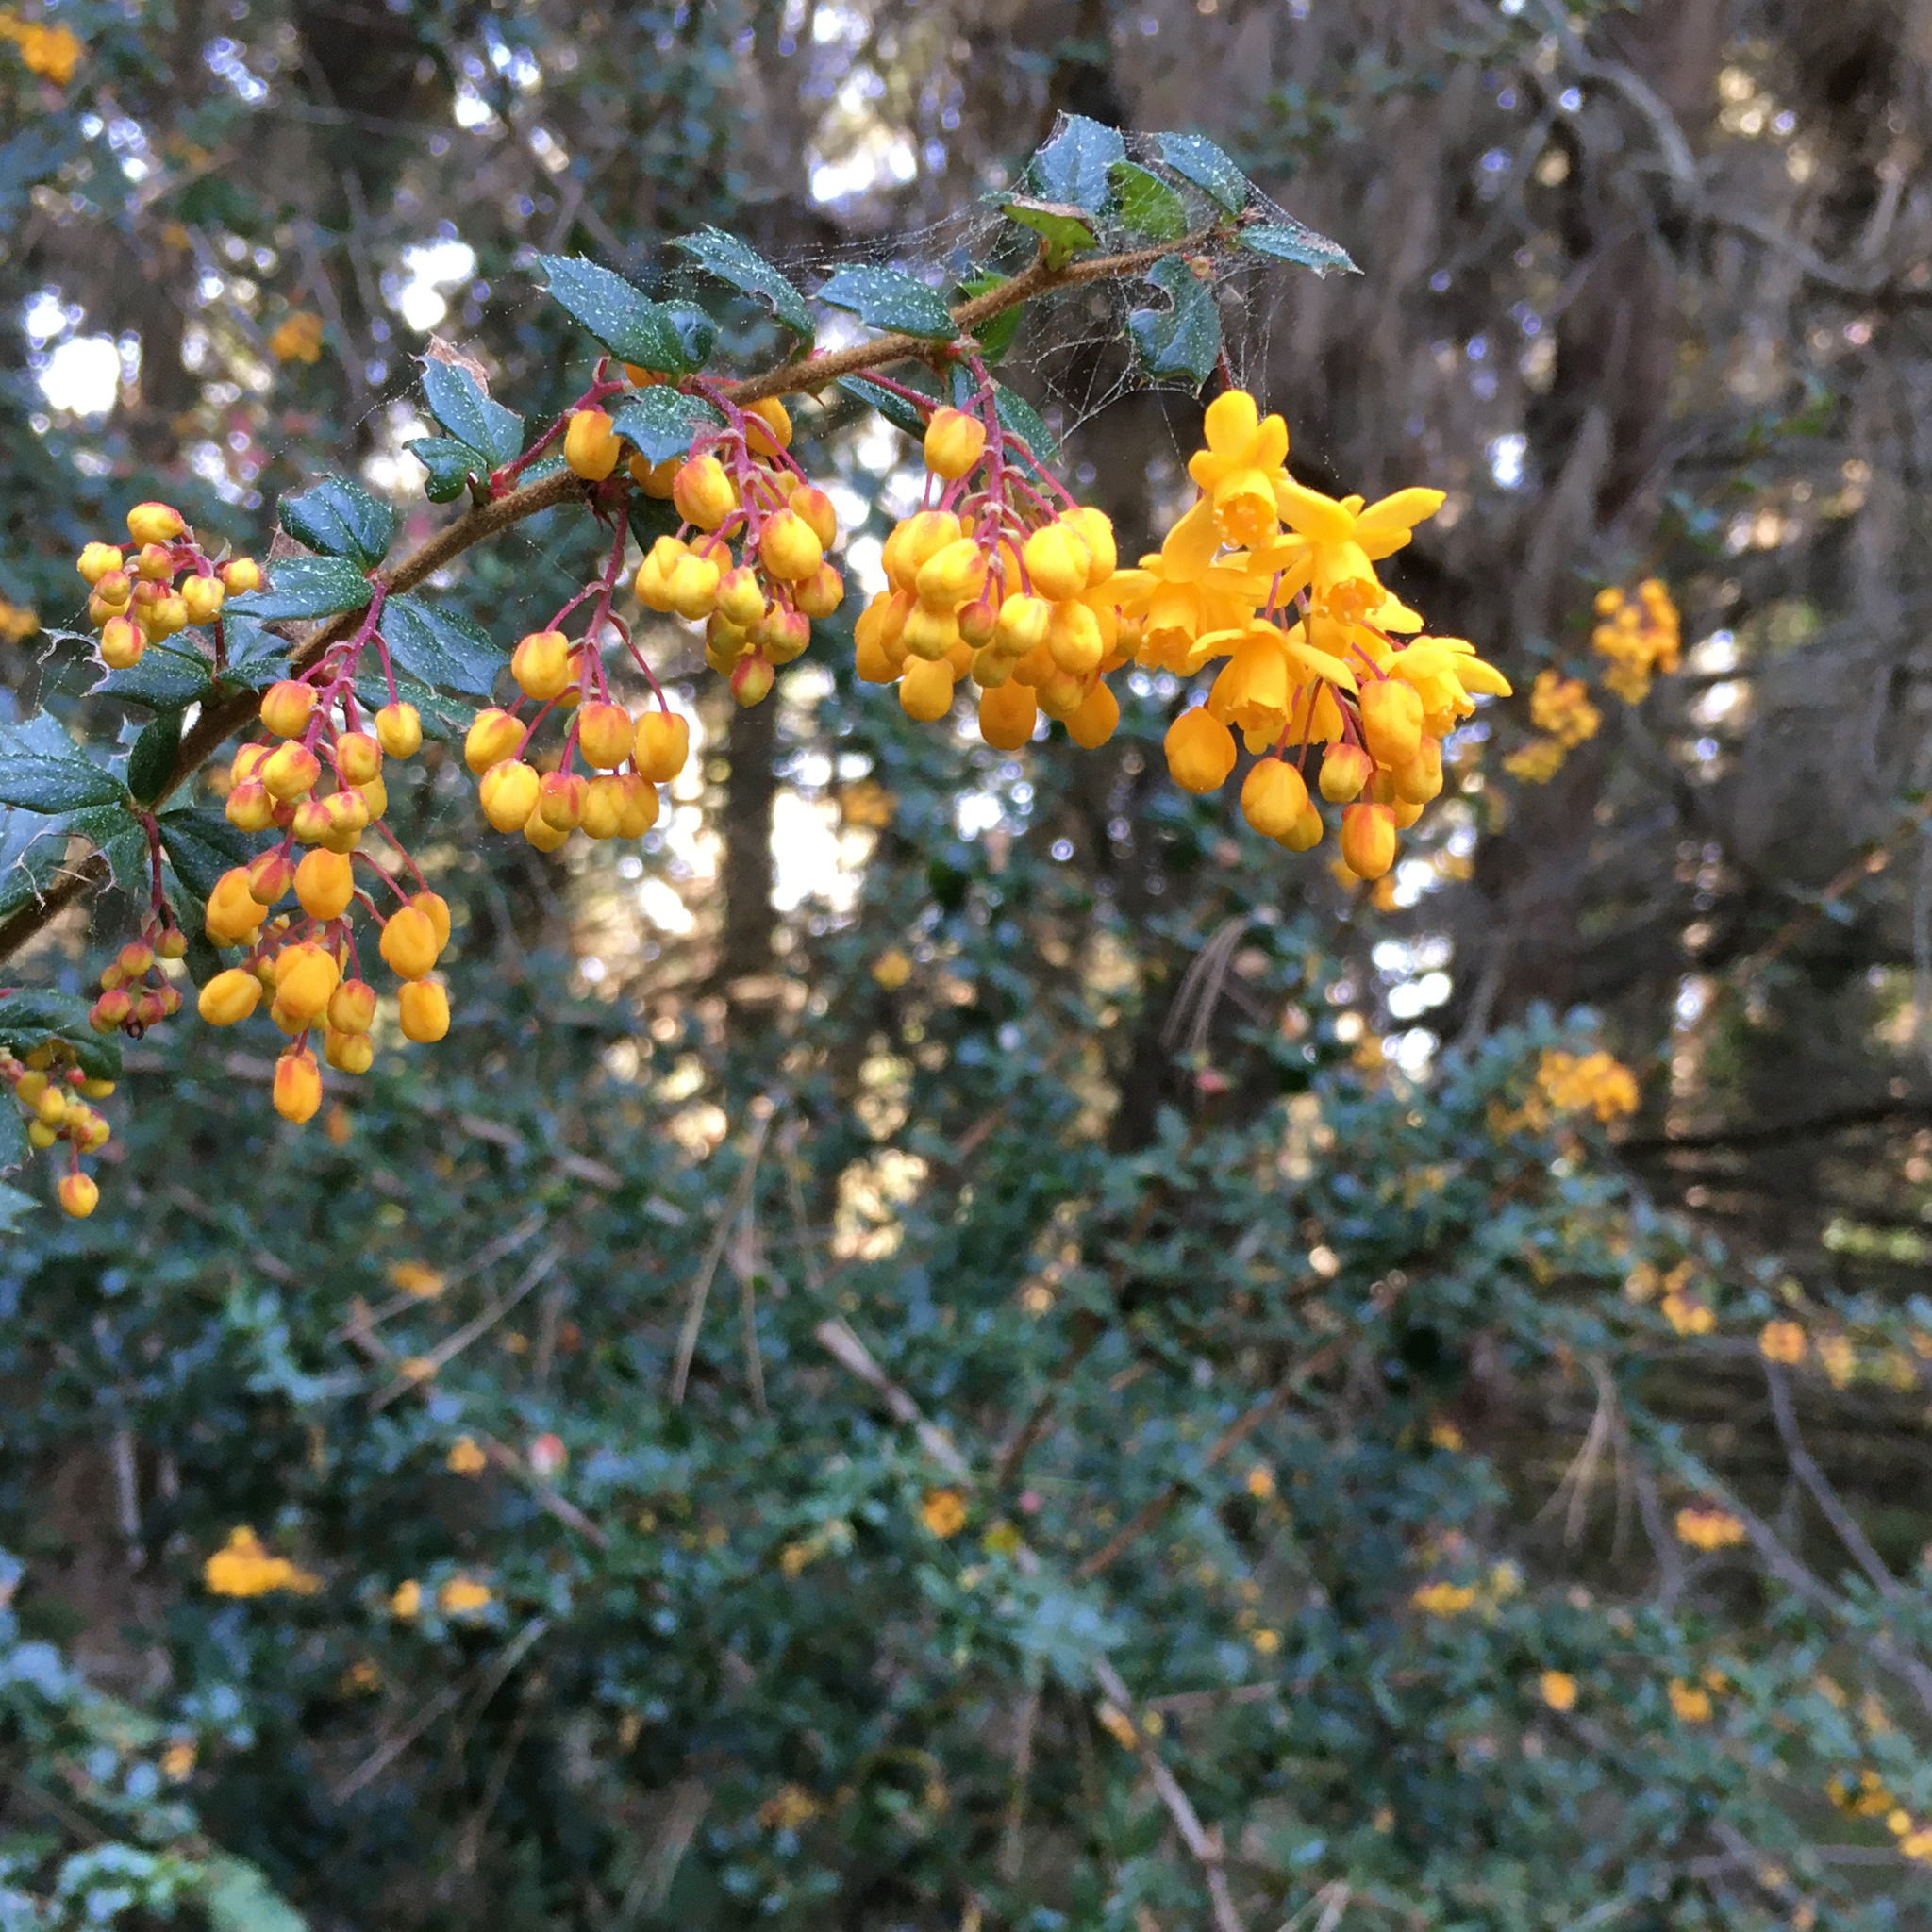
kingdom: Plantae
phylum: Tracheophyta
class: Magnoliopsida
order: Ranunculales
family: Berberidaceae
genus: Berberis
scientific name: Berberis darwinii
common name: Darwin's barberry
